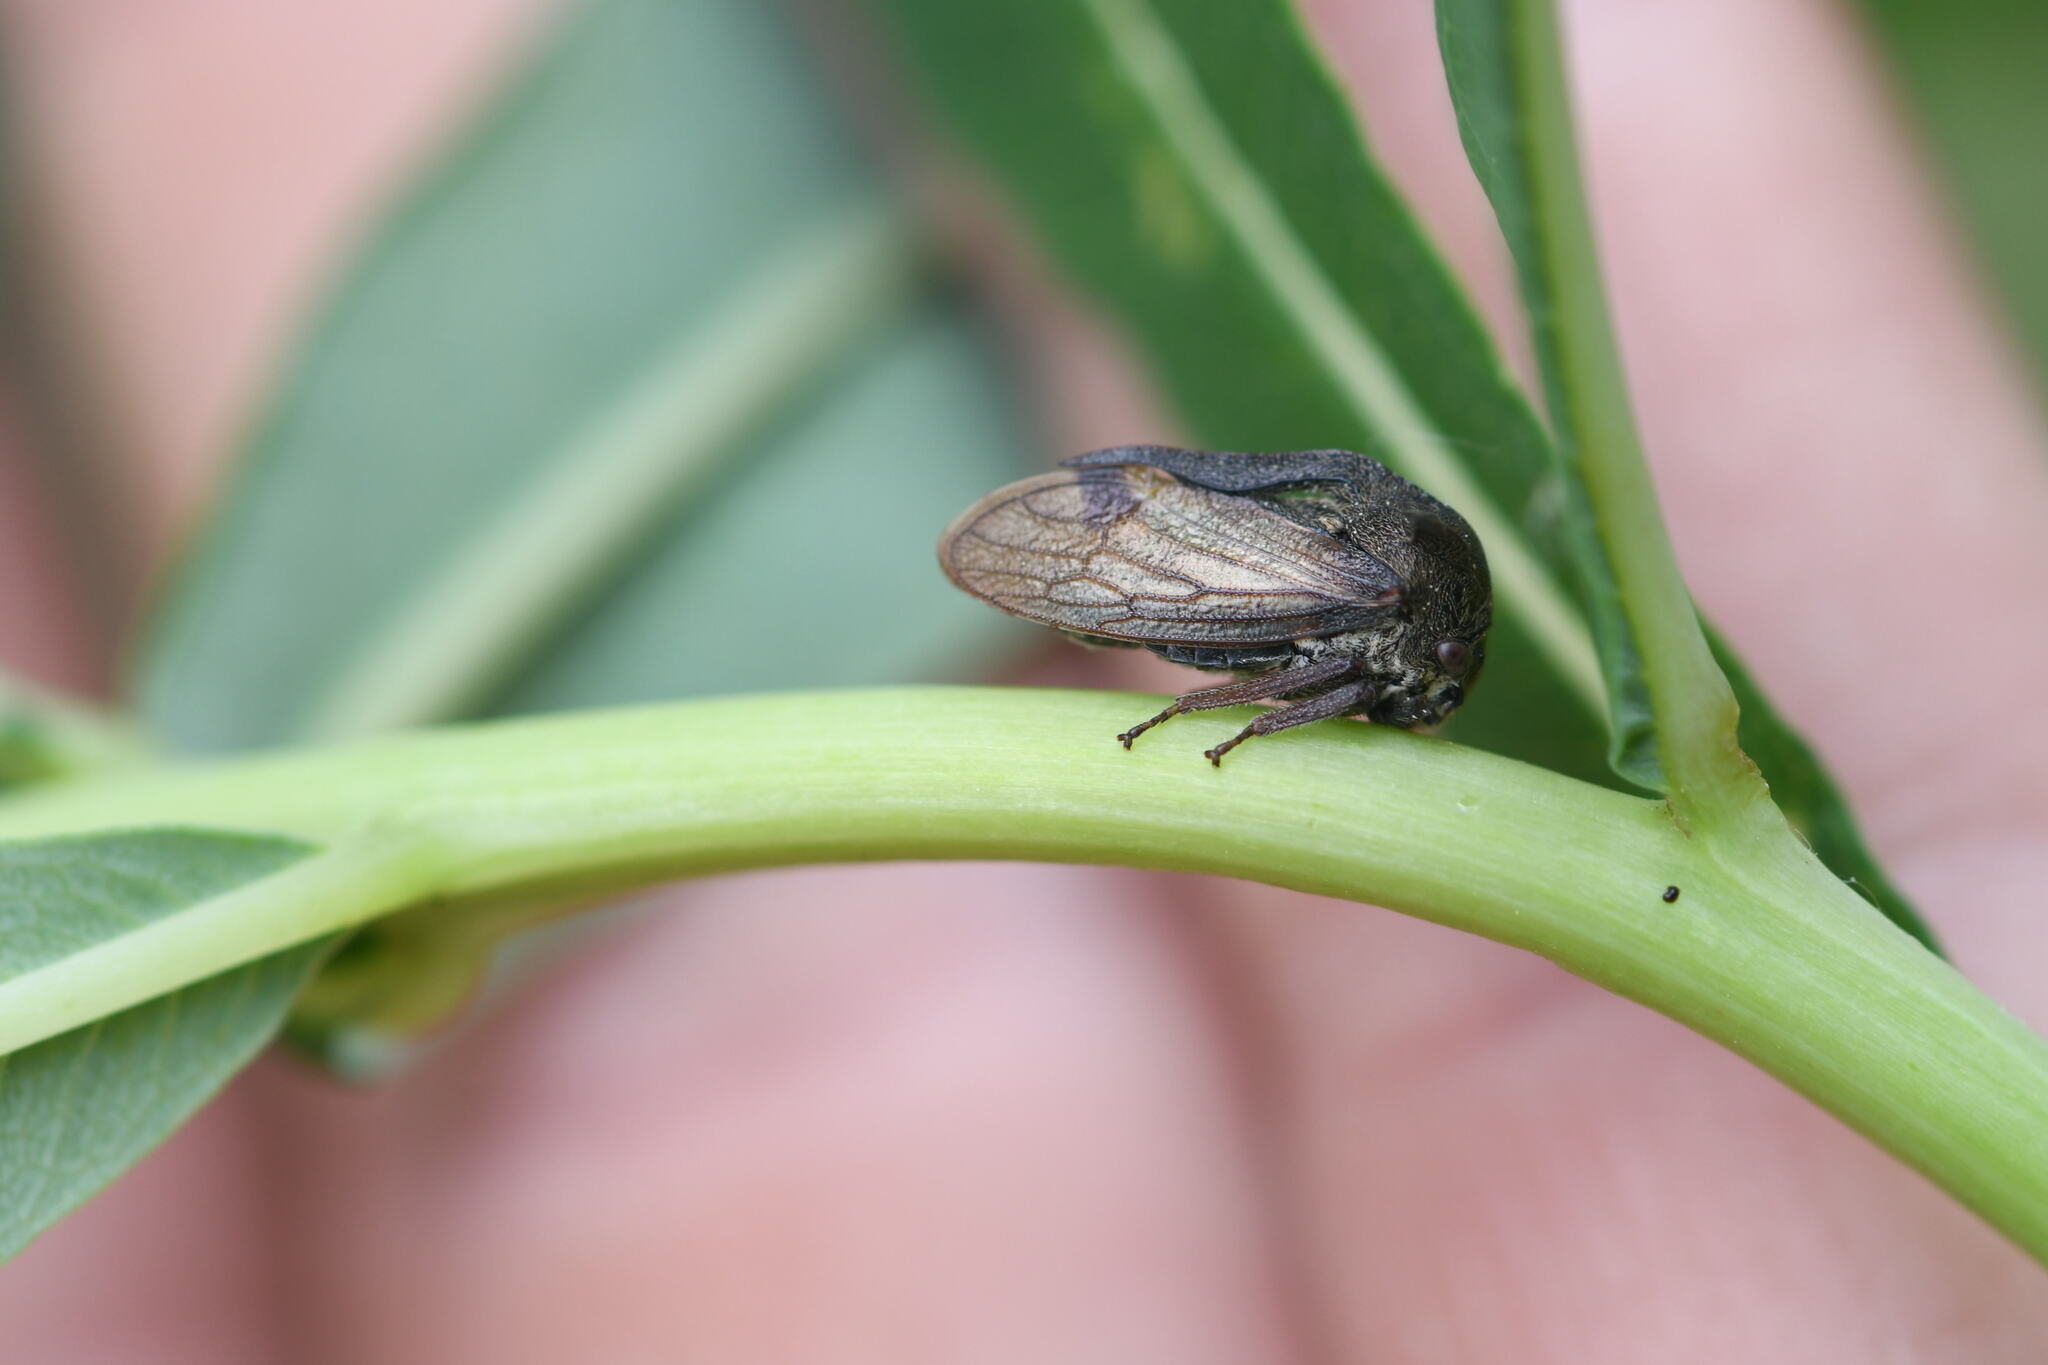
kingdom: Animalia
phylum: Arthropoda
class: Insecta
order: Hemiptera
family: Membracidae
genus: Centrotus
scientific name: Centrotus cornuta
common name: Treehopper
